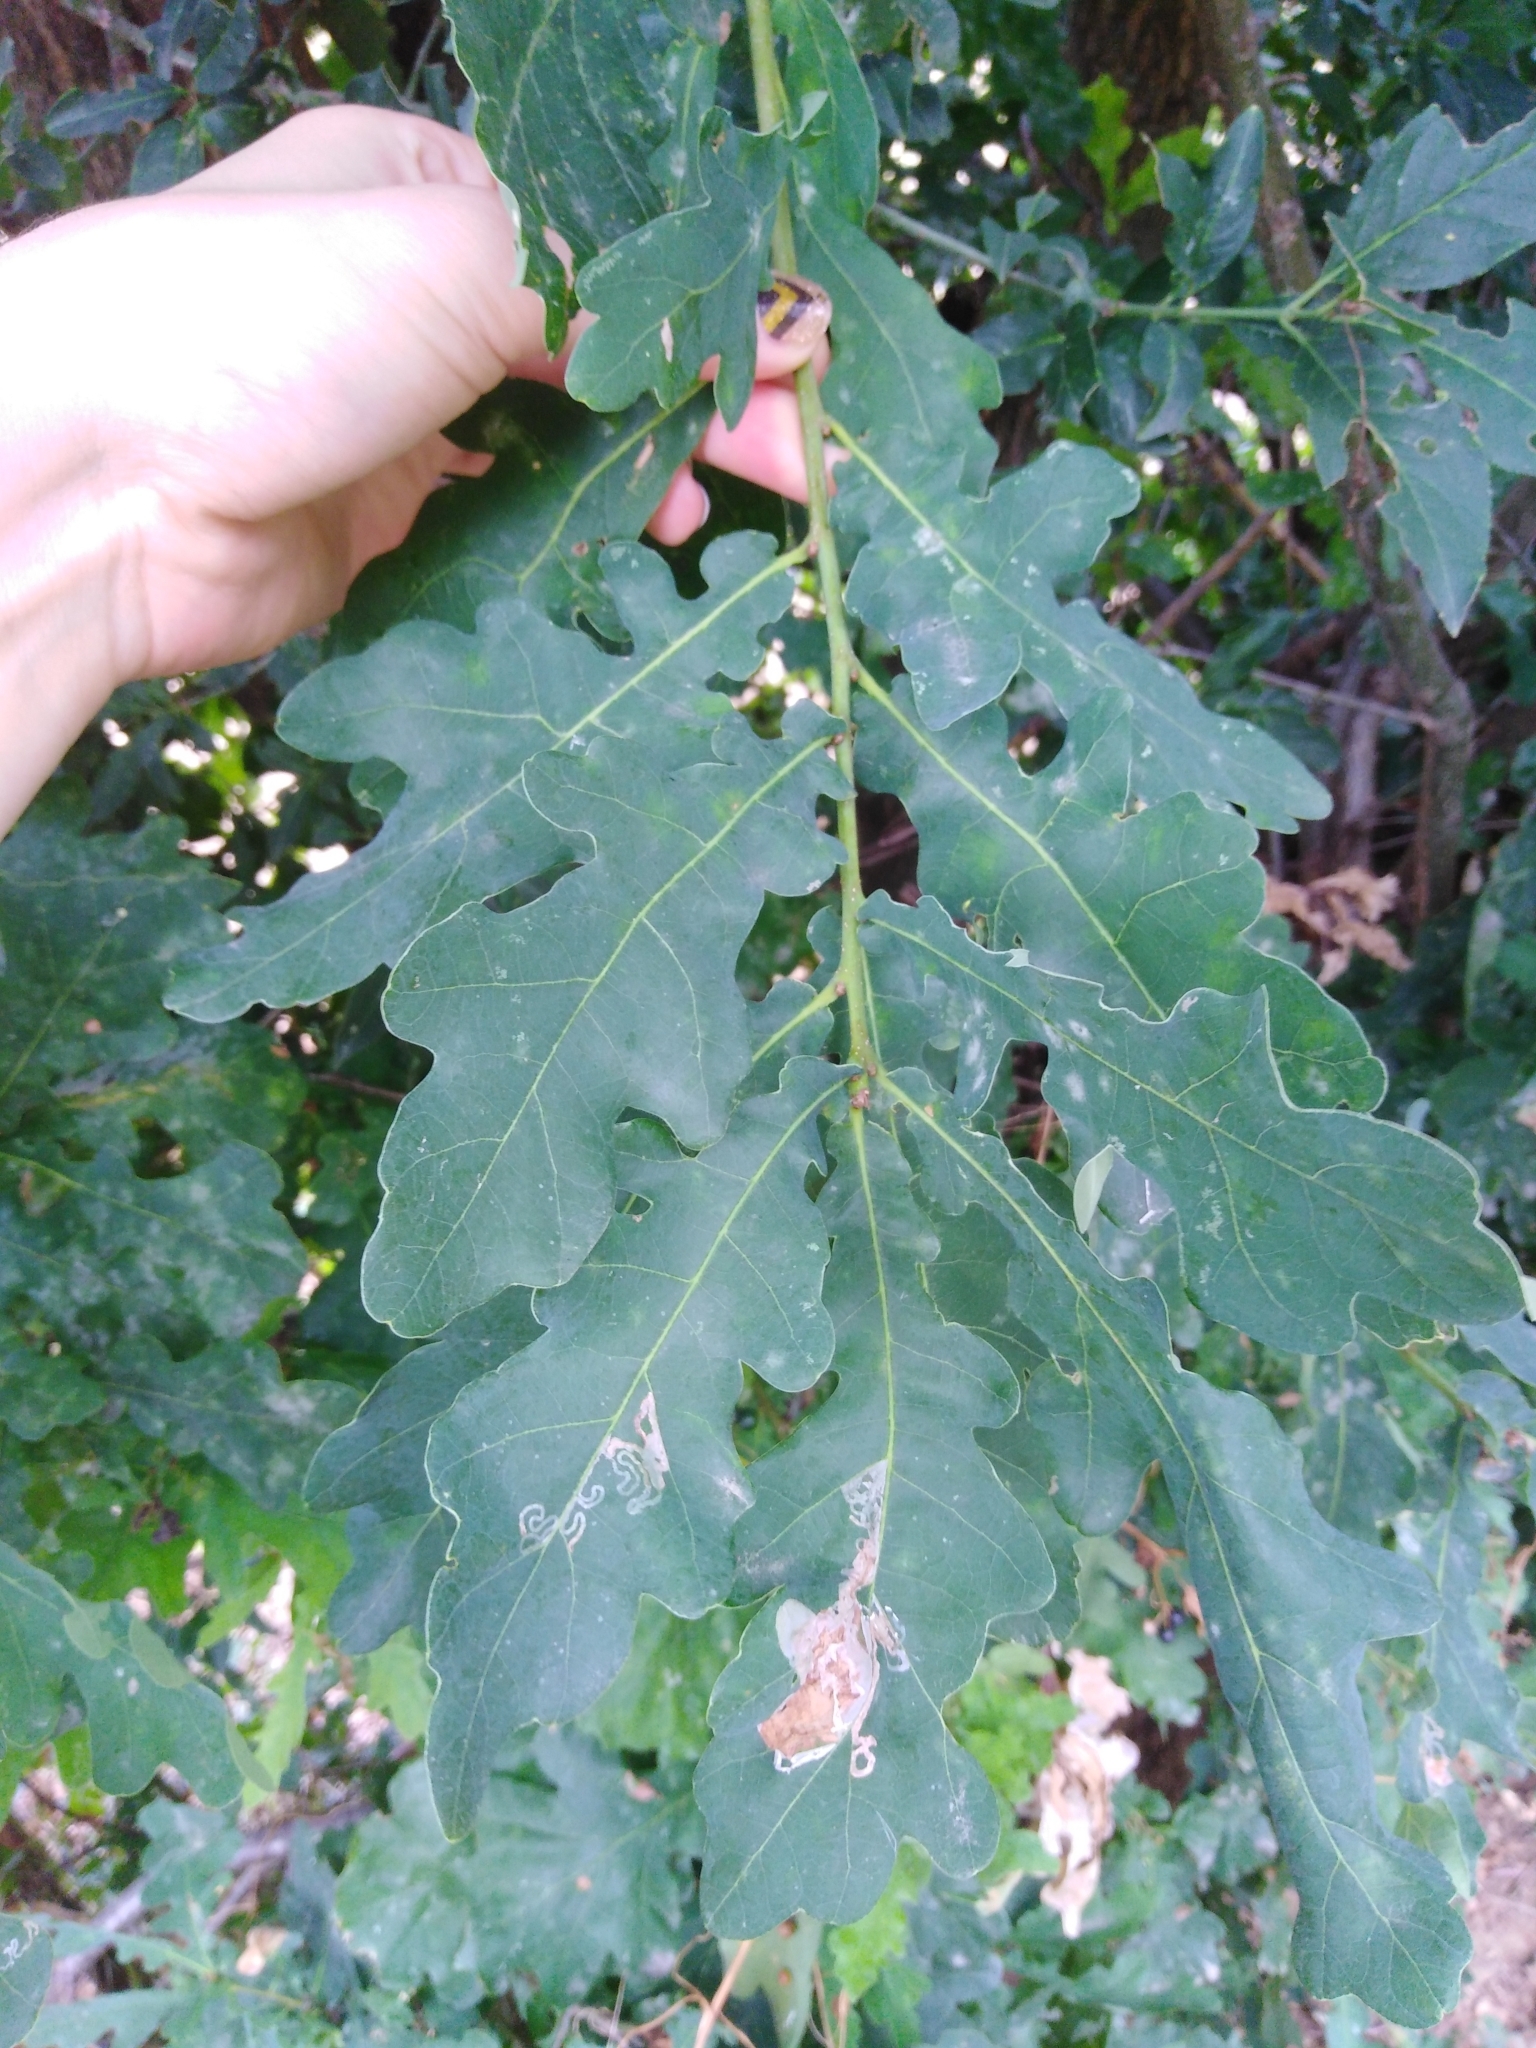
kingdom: Plantae
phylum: Tracheophyta
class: Magnoliopsida
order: Fagales
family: Fagaceae
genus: Quercus
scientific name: Quercus robur
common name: Pedunculate oak
